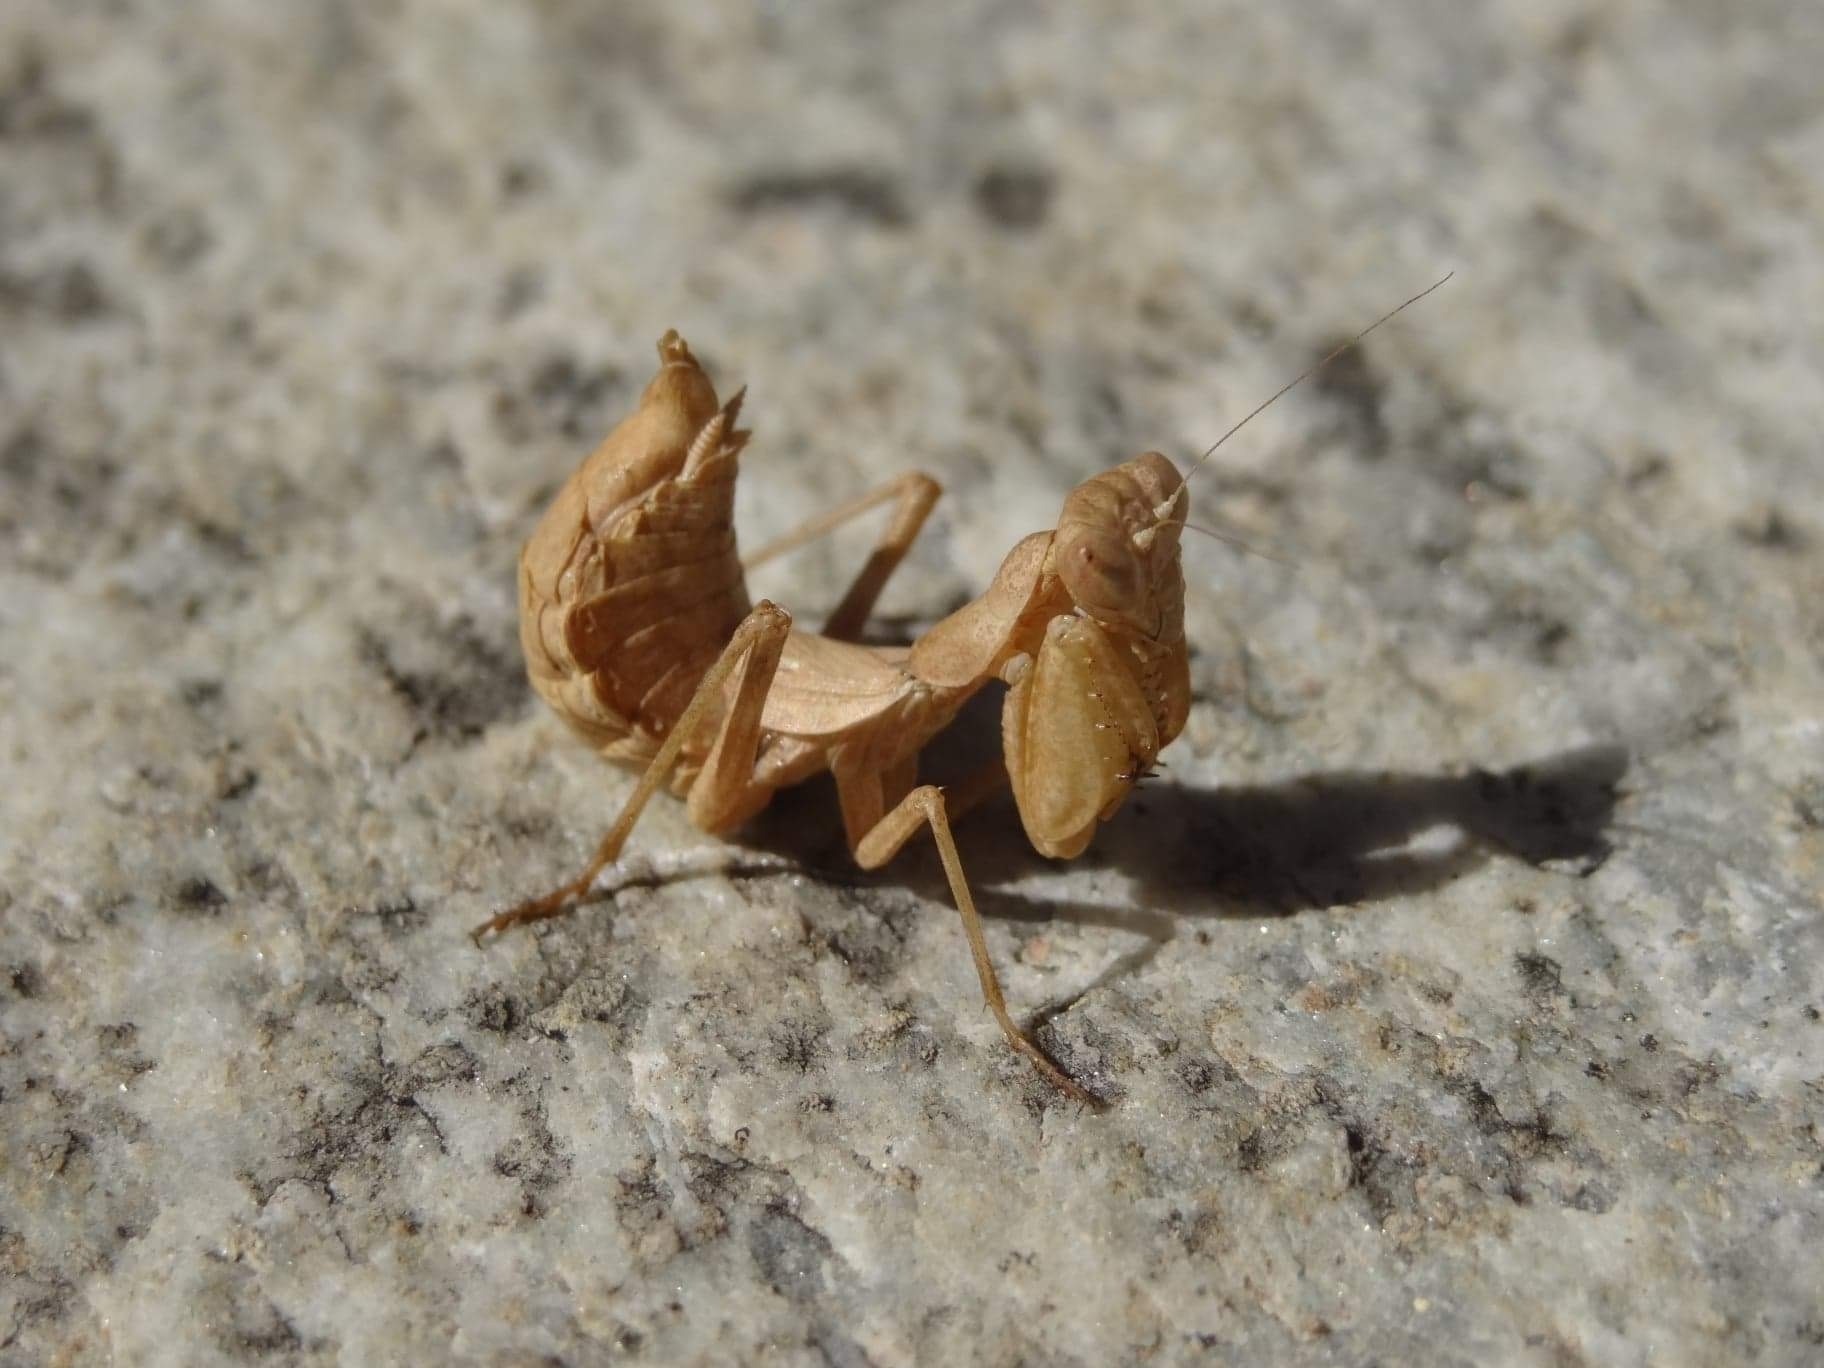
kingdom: Animalia
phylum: Arthropoda
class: Insecta
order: Mantodea
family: Amelidae
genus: Ameles
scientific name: Ameles spallanzania
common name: European dwarf mantis
